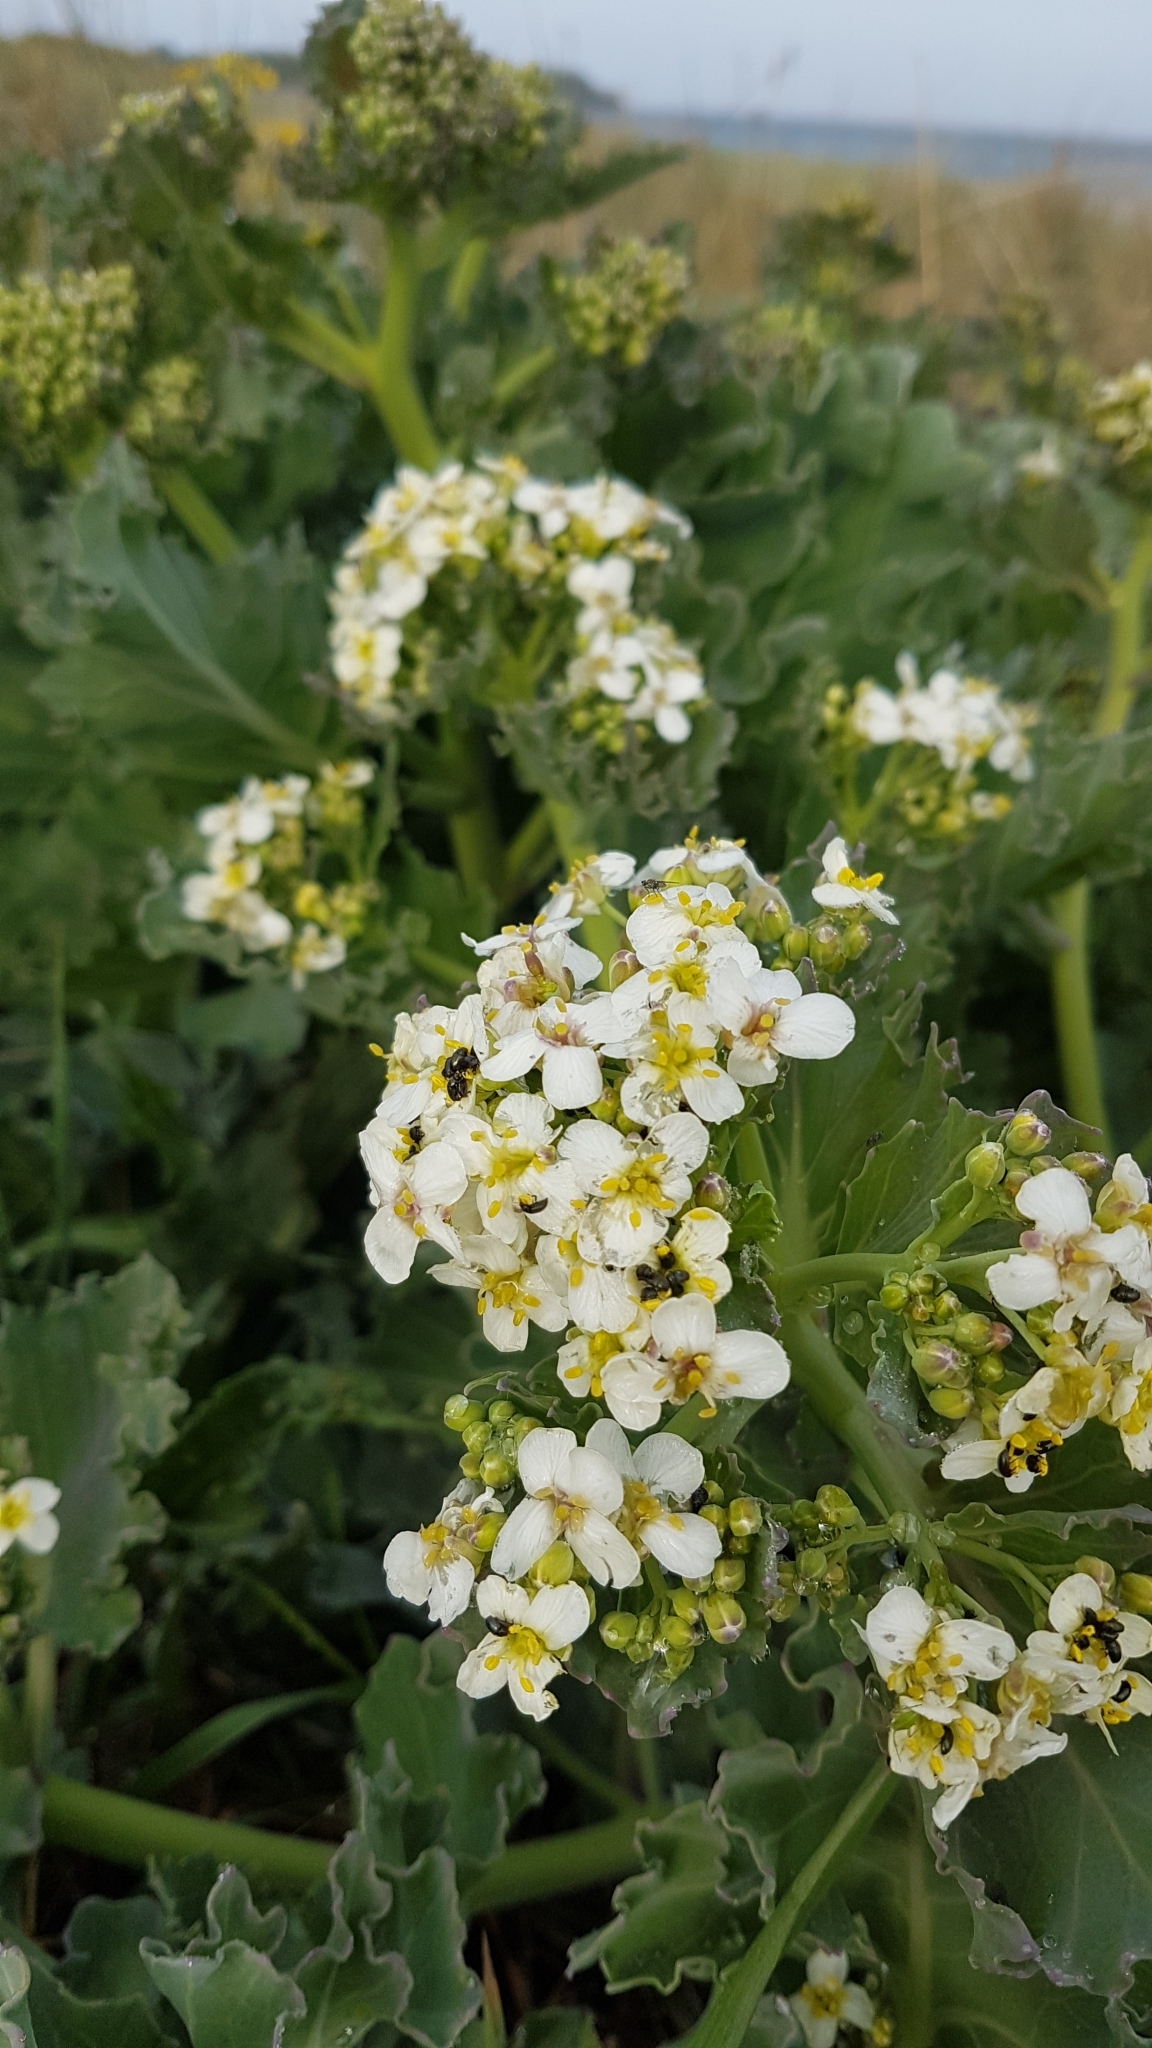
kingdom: Plantae
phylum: Tracheophyta
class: Magnoliopsida
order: Brassicales
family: Brassicaceae
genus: Crambe
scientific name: Crambe maritima
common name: Sea-kale
